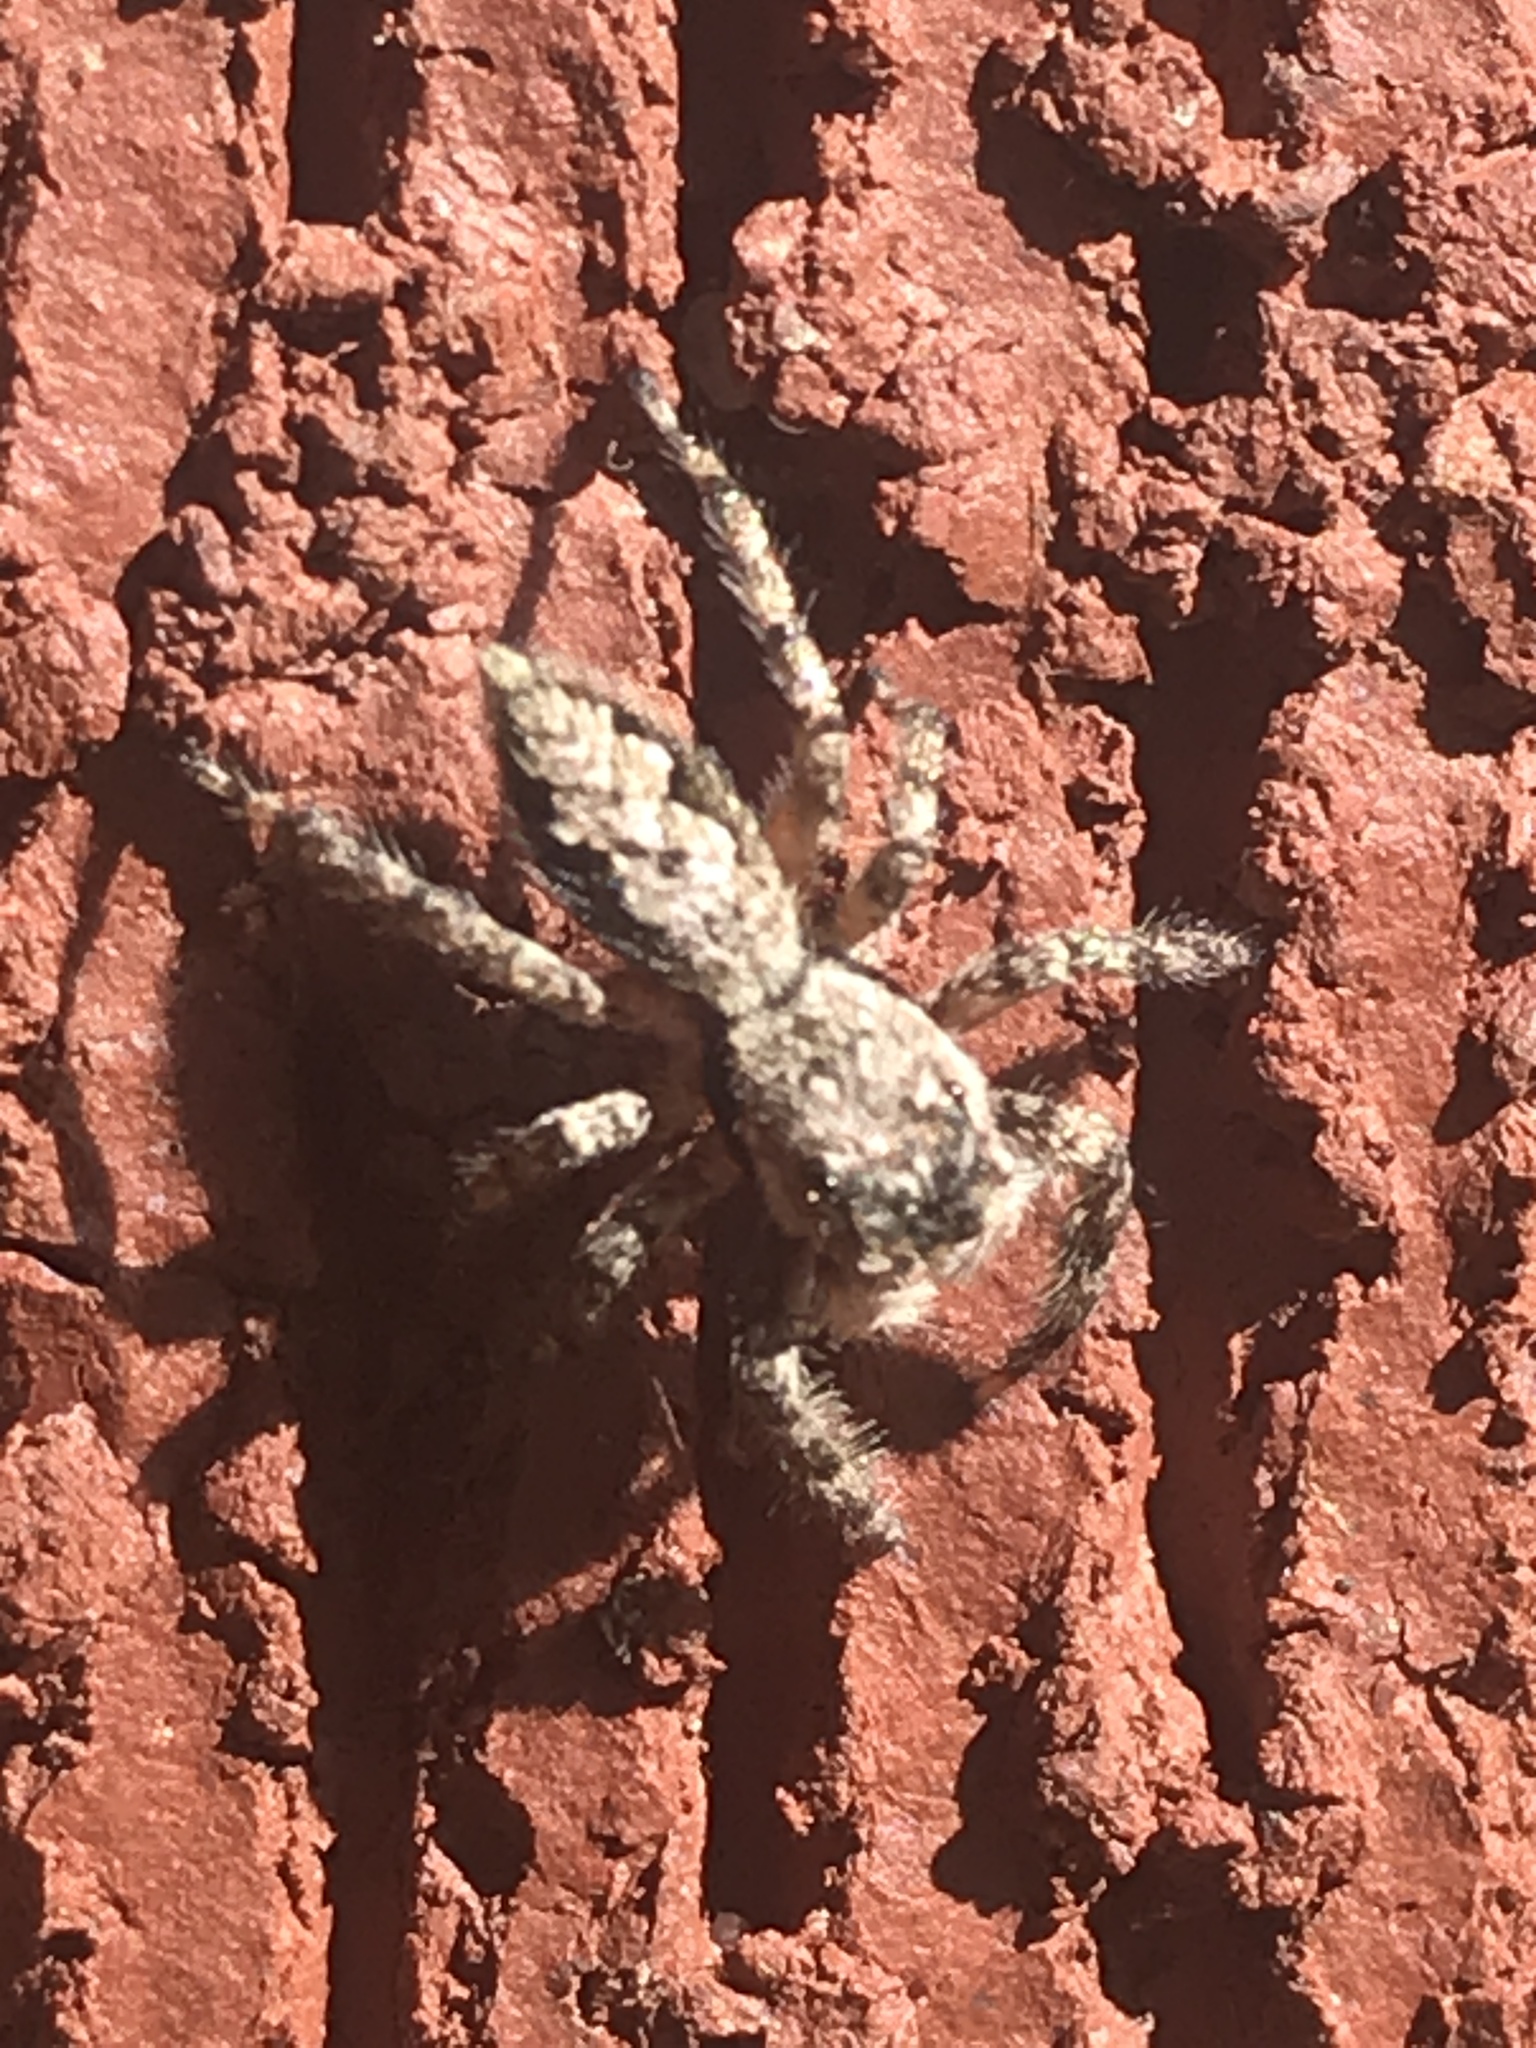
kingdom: Animalia
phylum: Arthropoda
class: Arachnida
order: Araneae
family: Salticidae
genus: Platycryptus
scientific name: Platycryptus undatus
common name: Tan jumping spider
